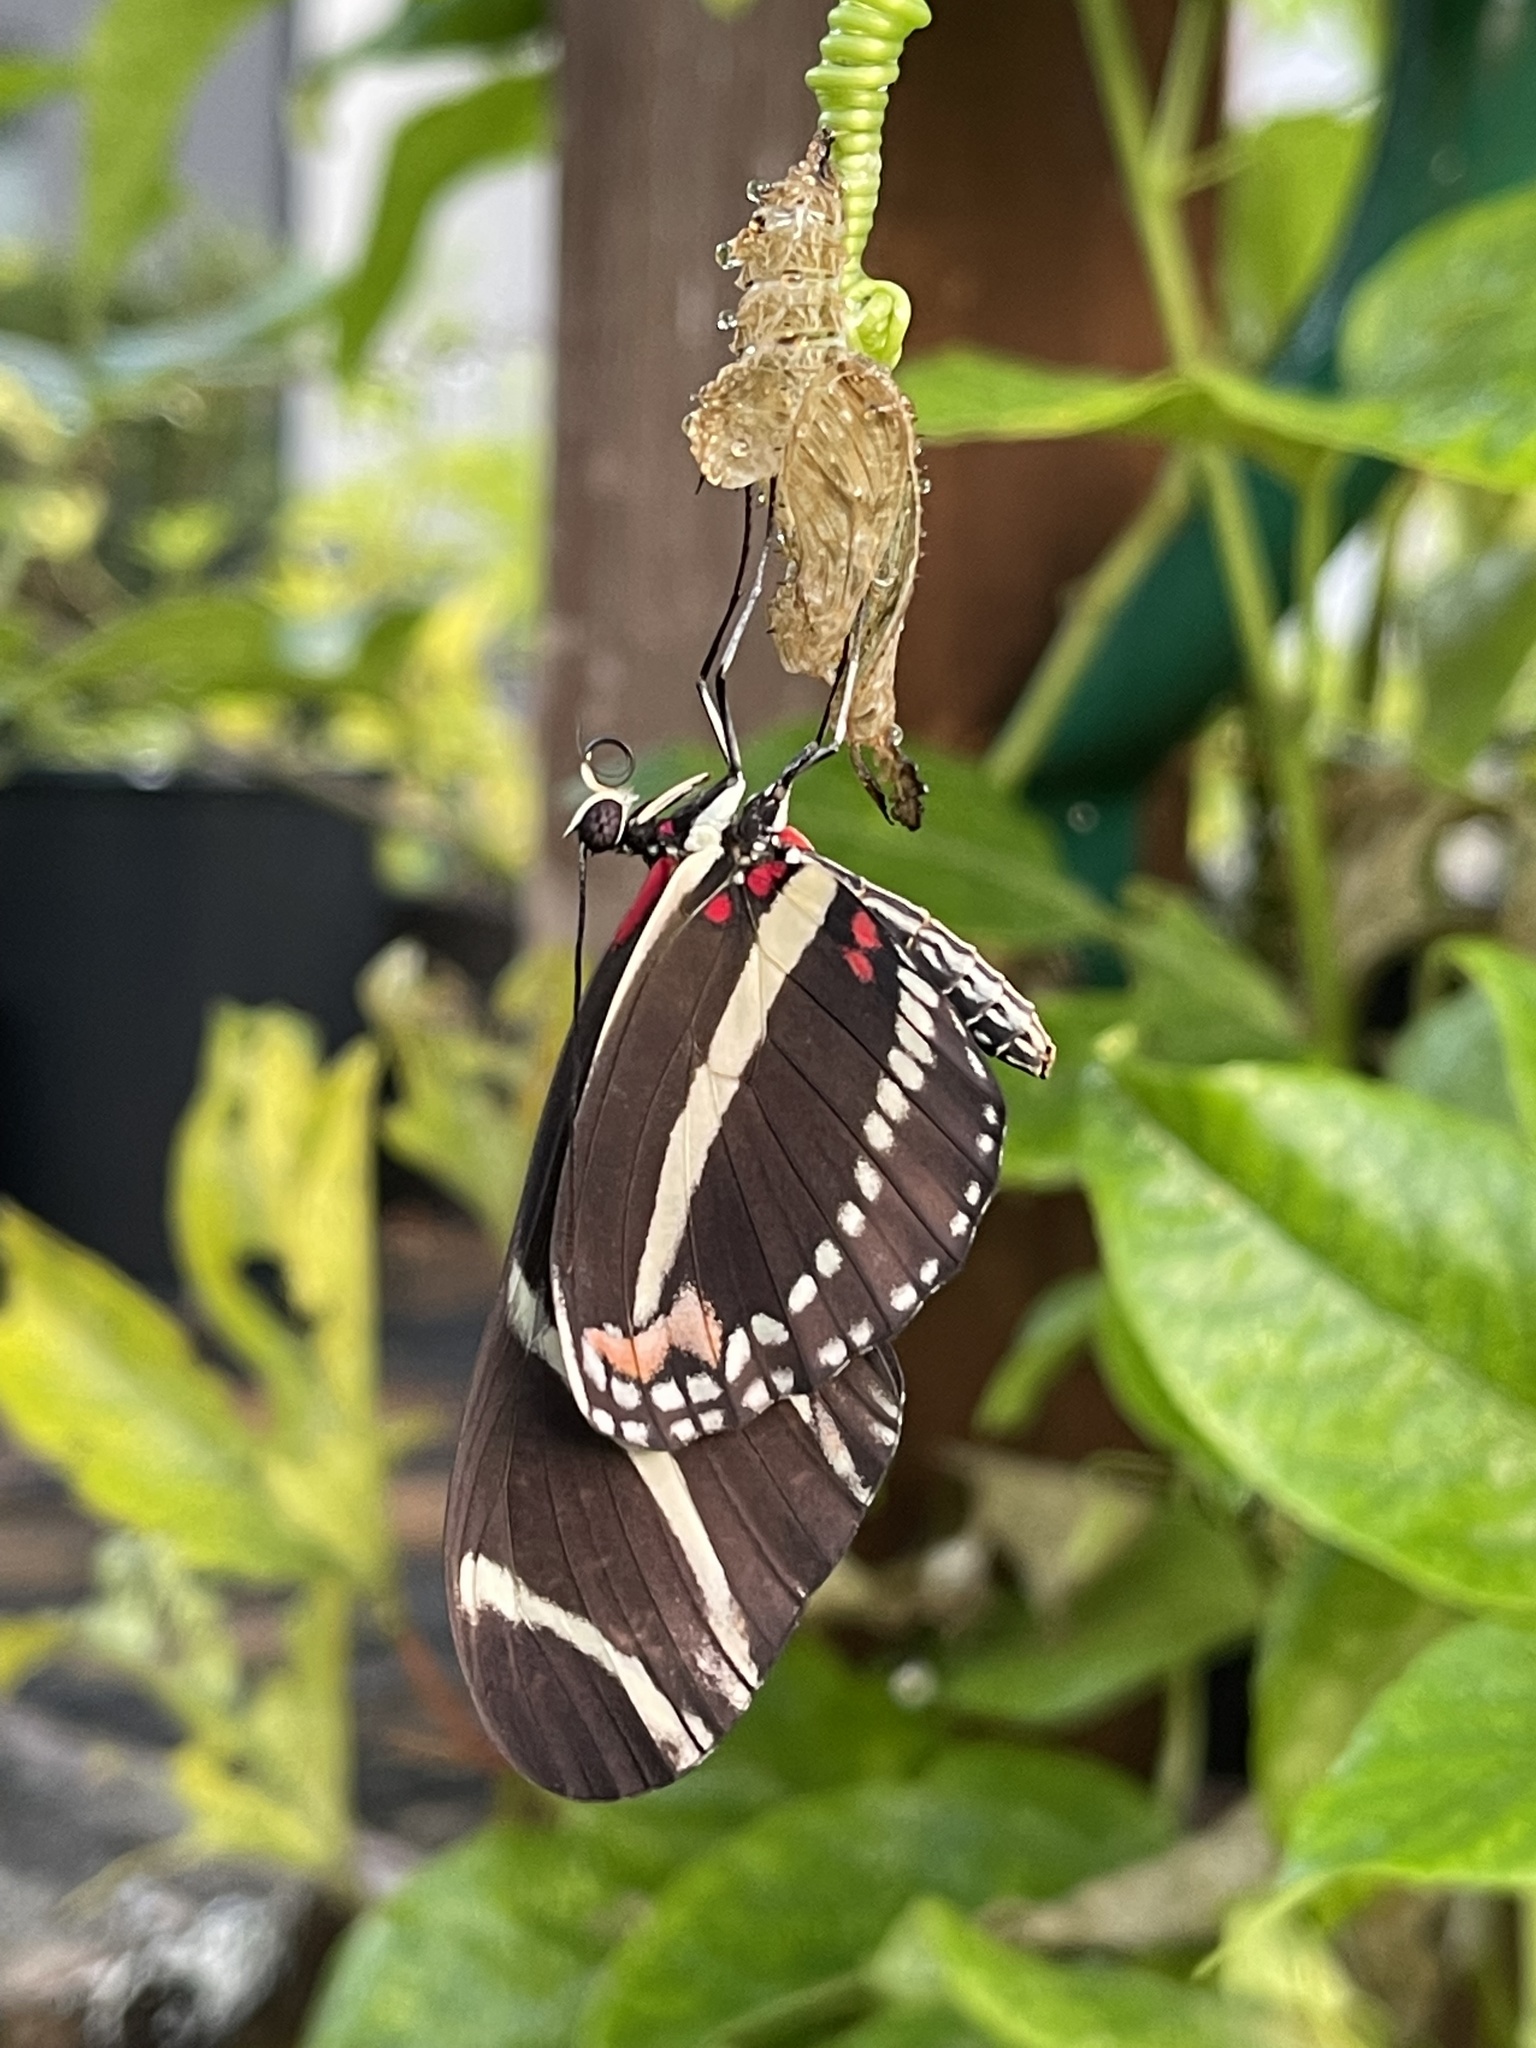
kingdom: Animalia
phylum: Arthropoda
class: Insecta
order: Lepidoptera
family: Nymphalidae
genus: Heliconius
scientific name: Heliconius charithonia
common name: Zebra long wing
